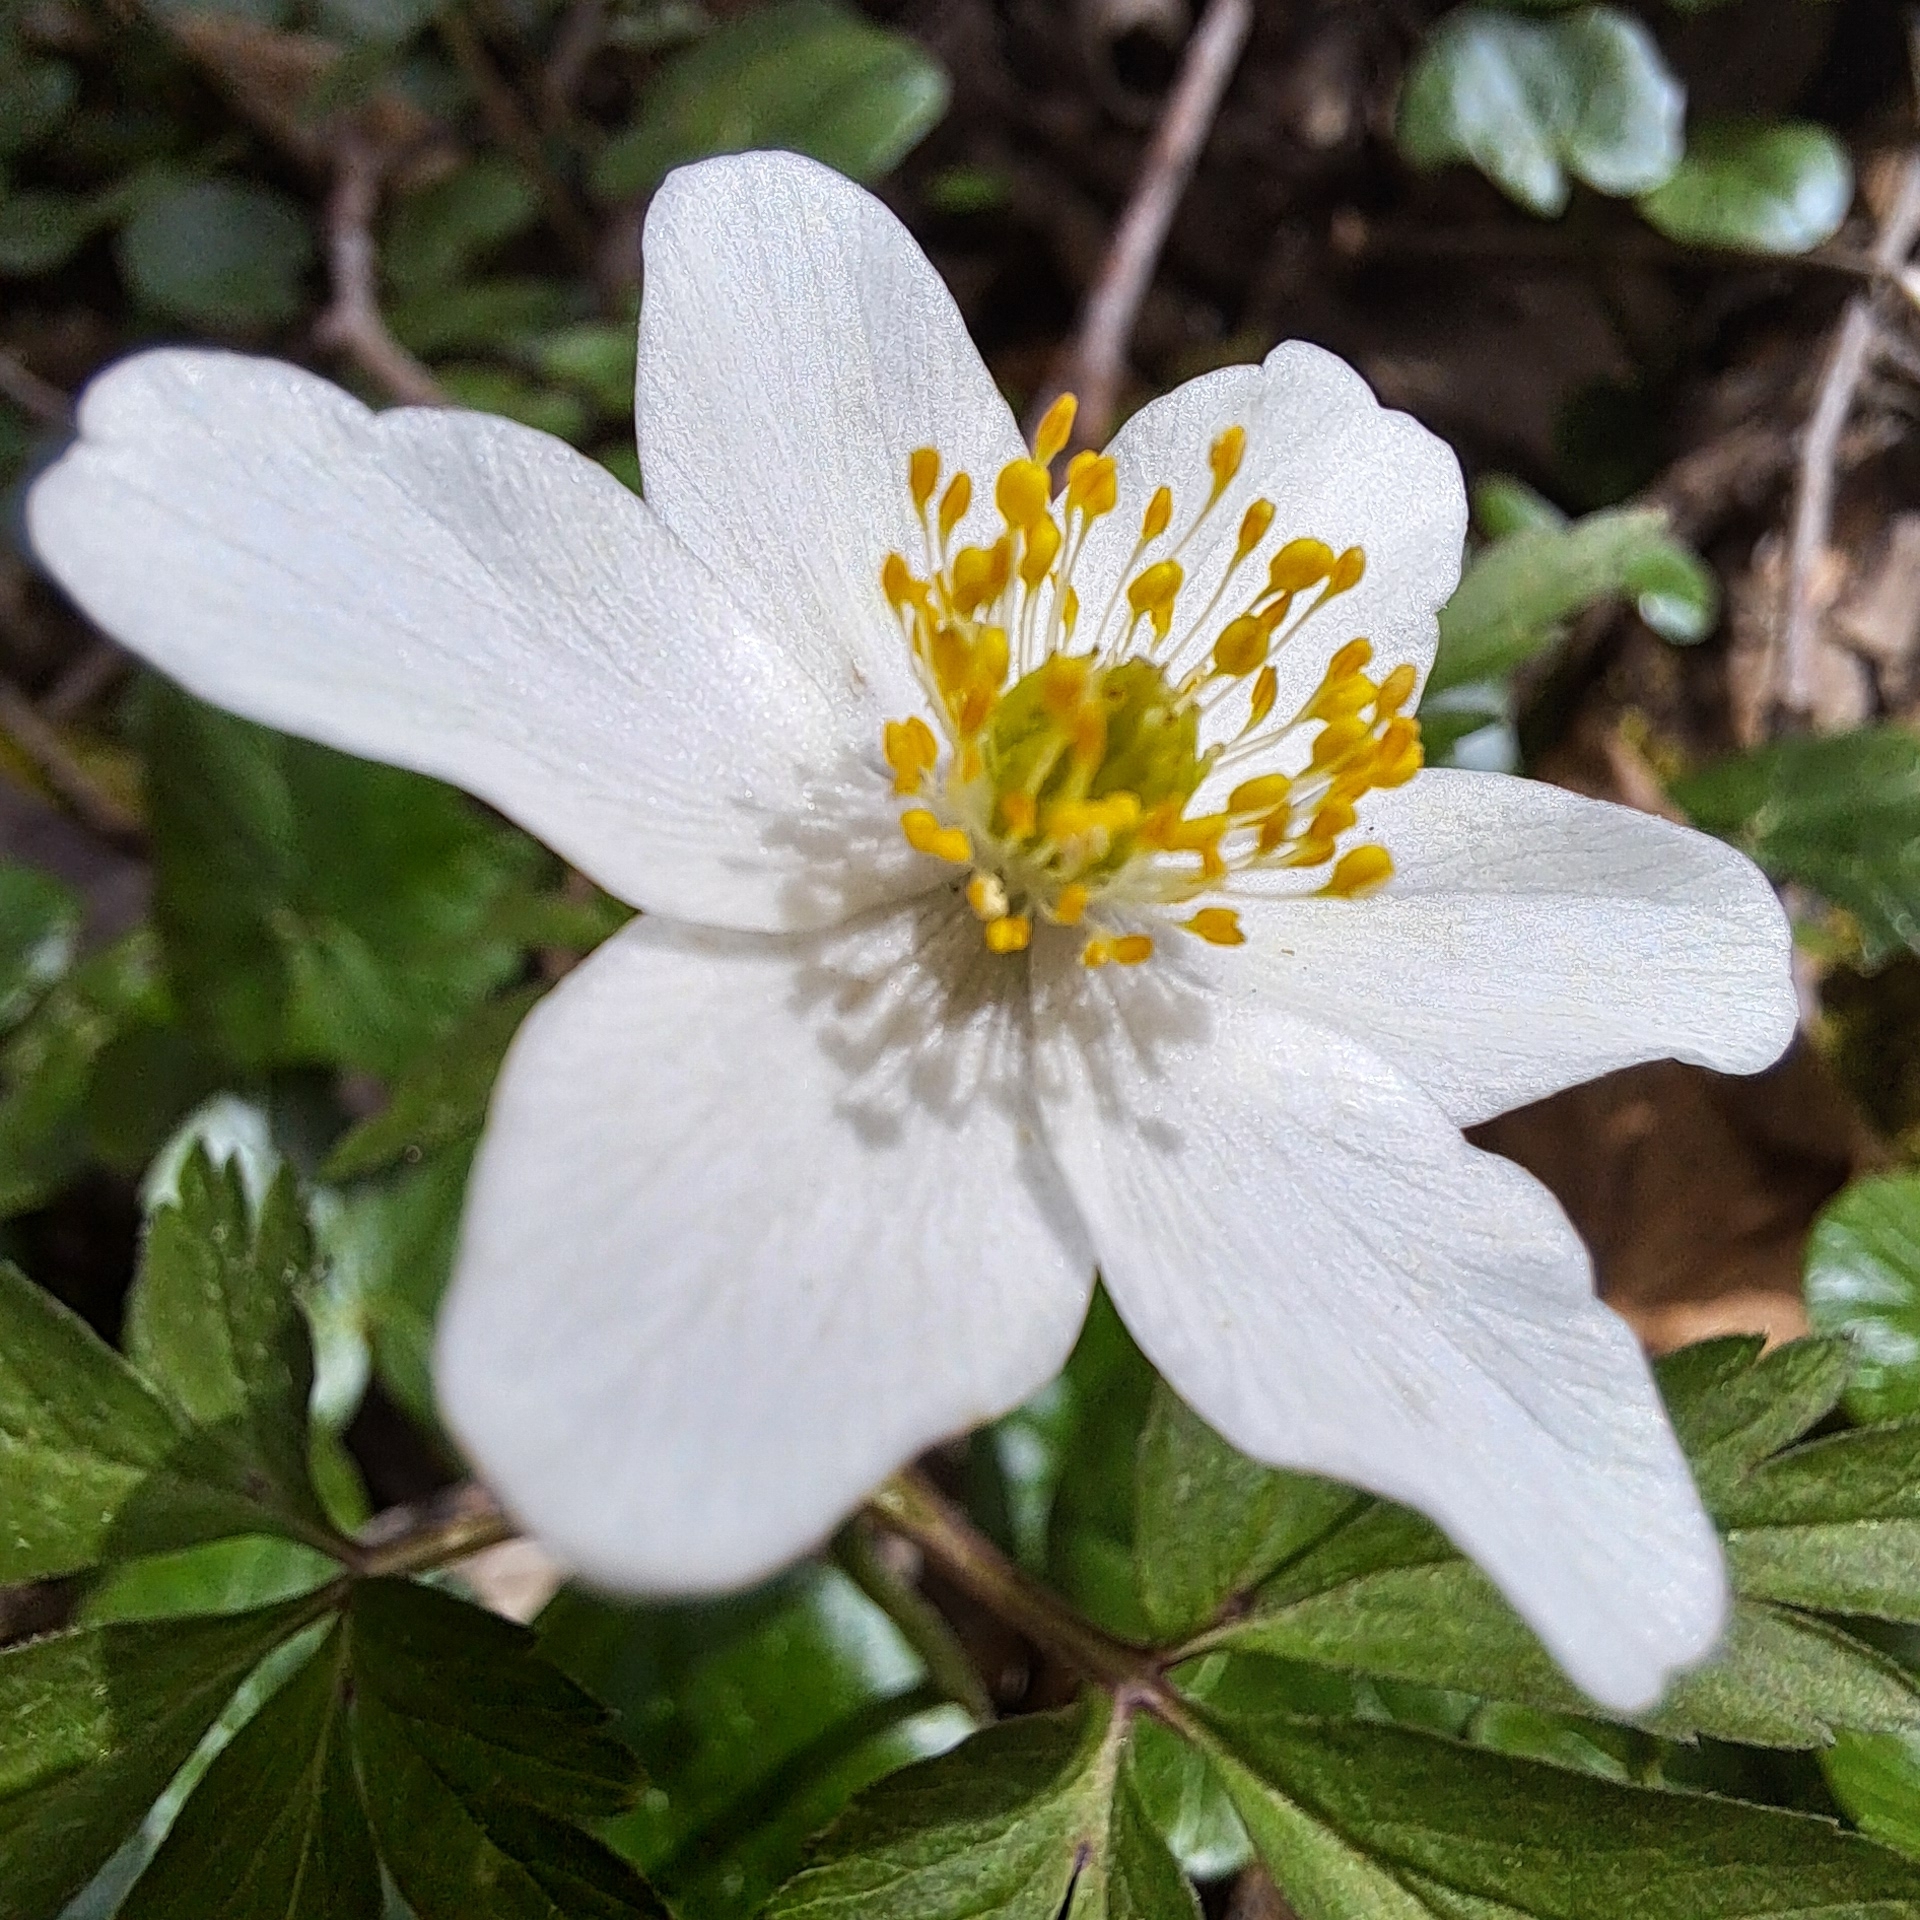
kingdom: Plantae
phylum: Tracheophyta
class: Magnoliopsida
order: Ranunculales
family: Ranunculaceae
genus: Anemone
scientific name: Anemone nemorosa
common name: Wood anemone
